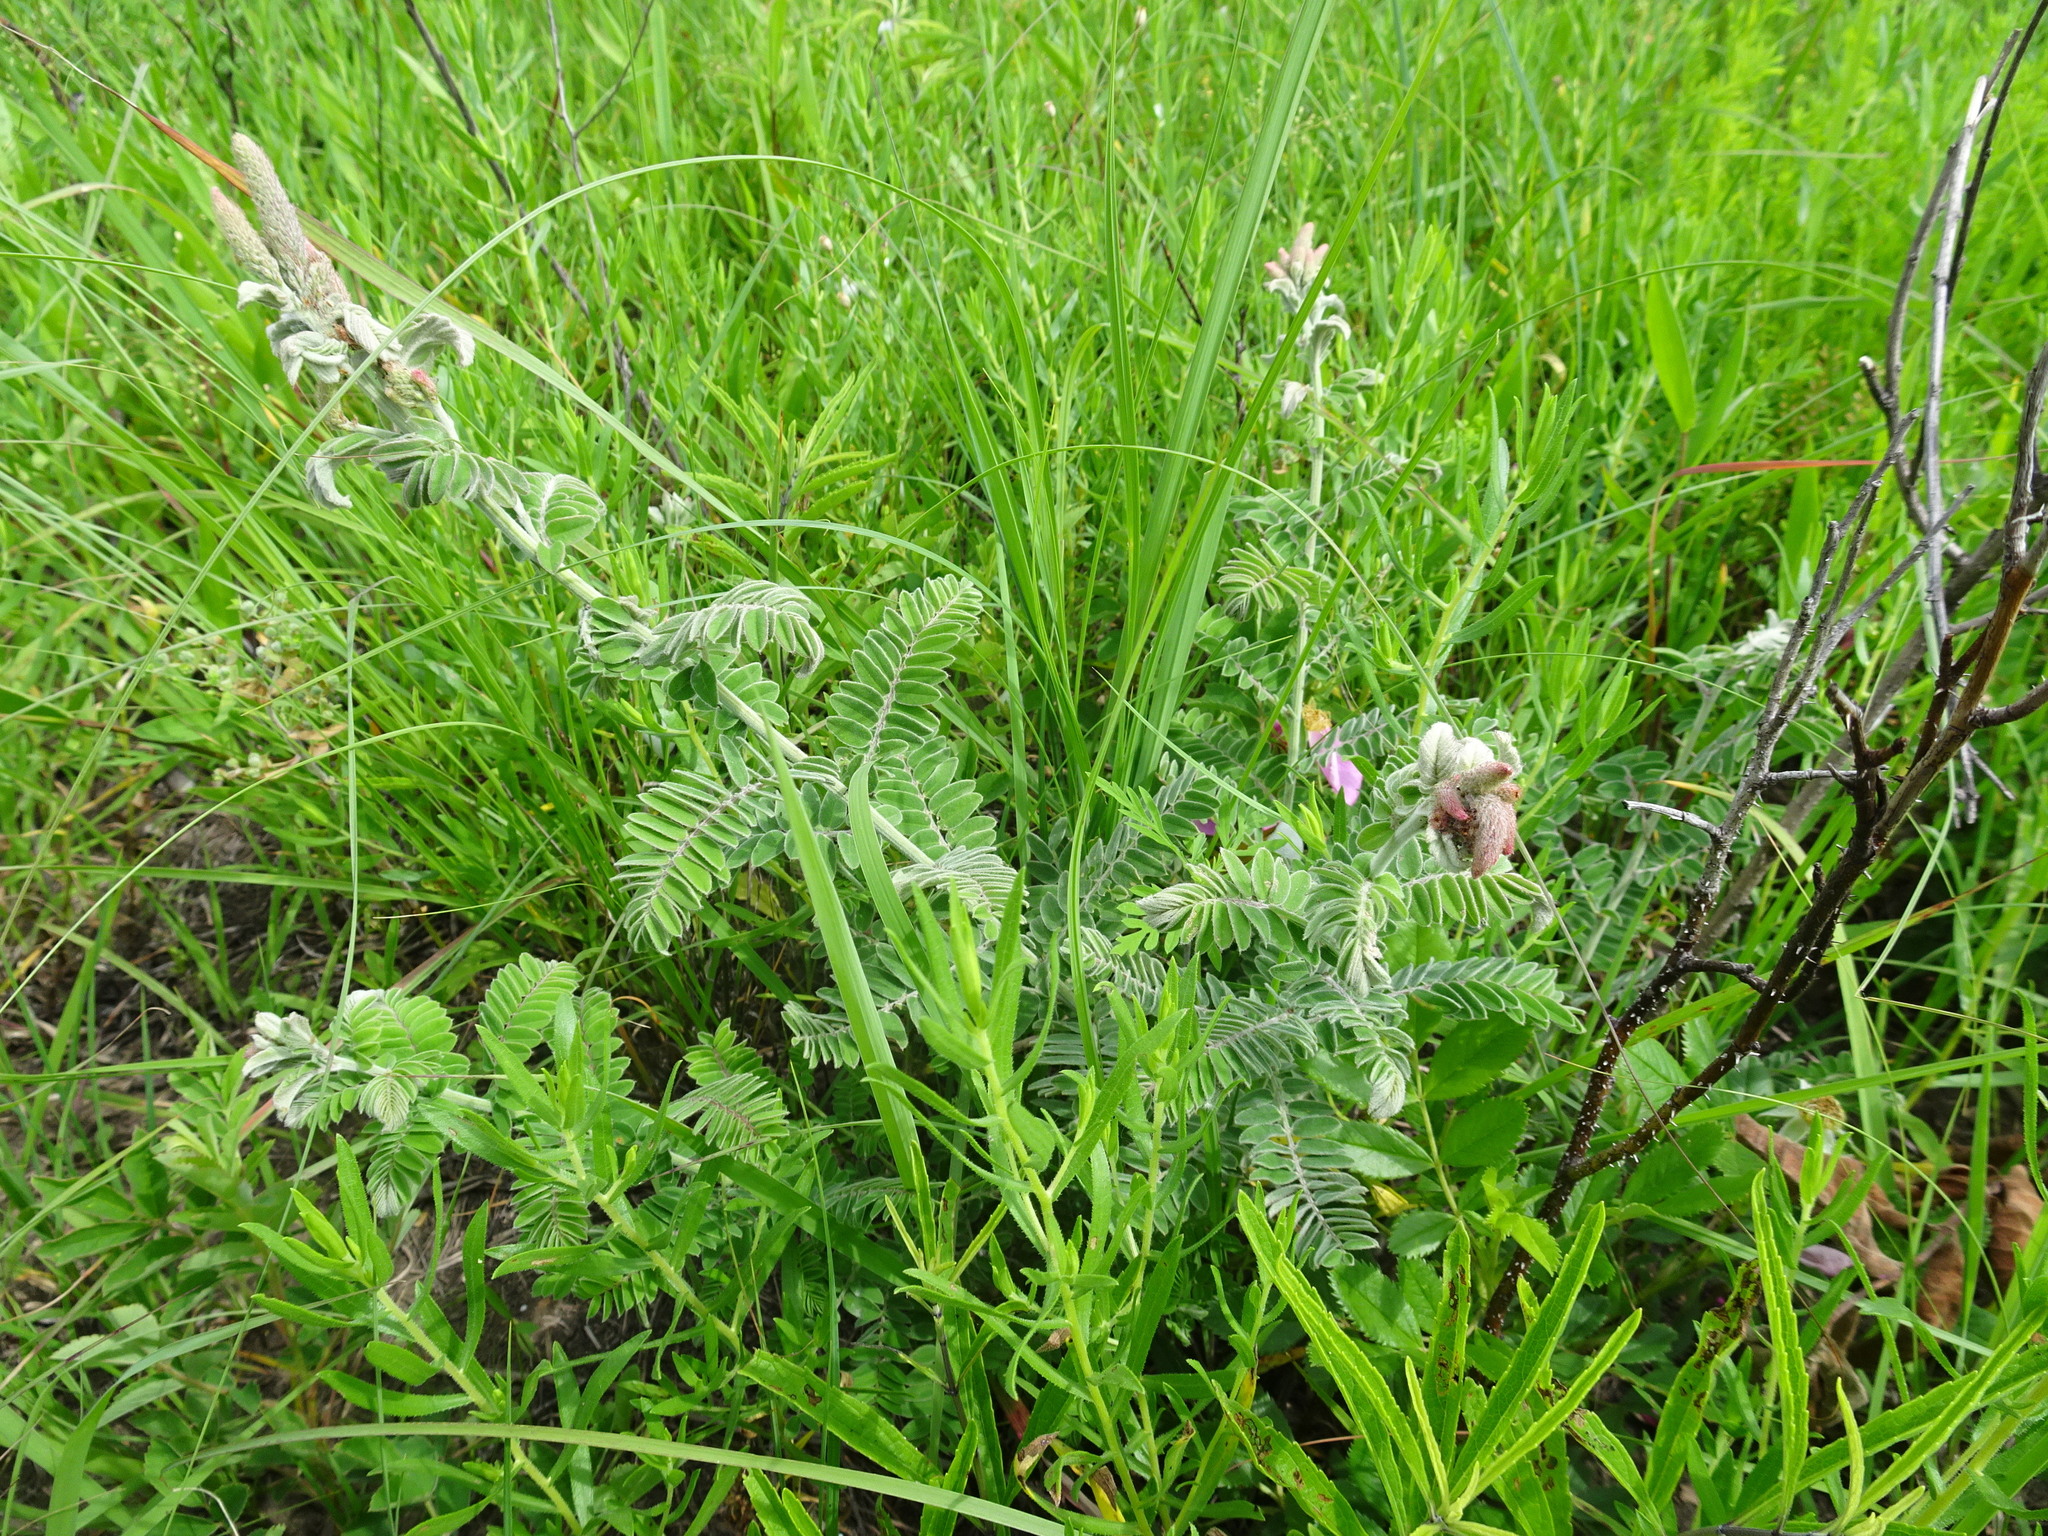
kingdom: Plantae
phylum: Tracheophyta
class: Magnoliopsida
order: Fabales
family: Fabaceae
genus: Amorpha
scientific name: Amorpha canescens
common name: Leadplant
